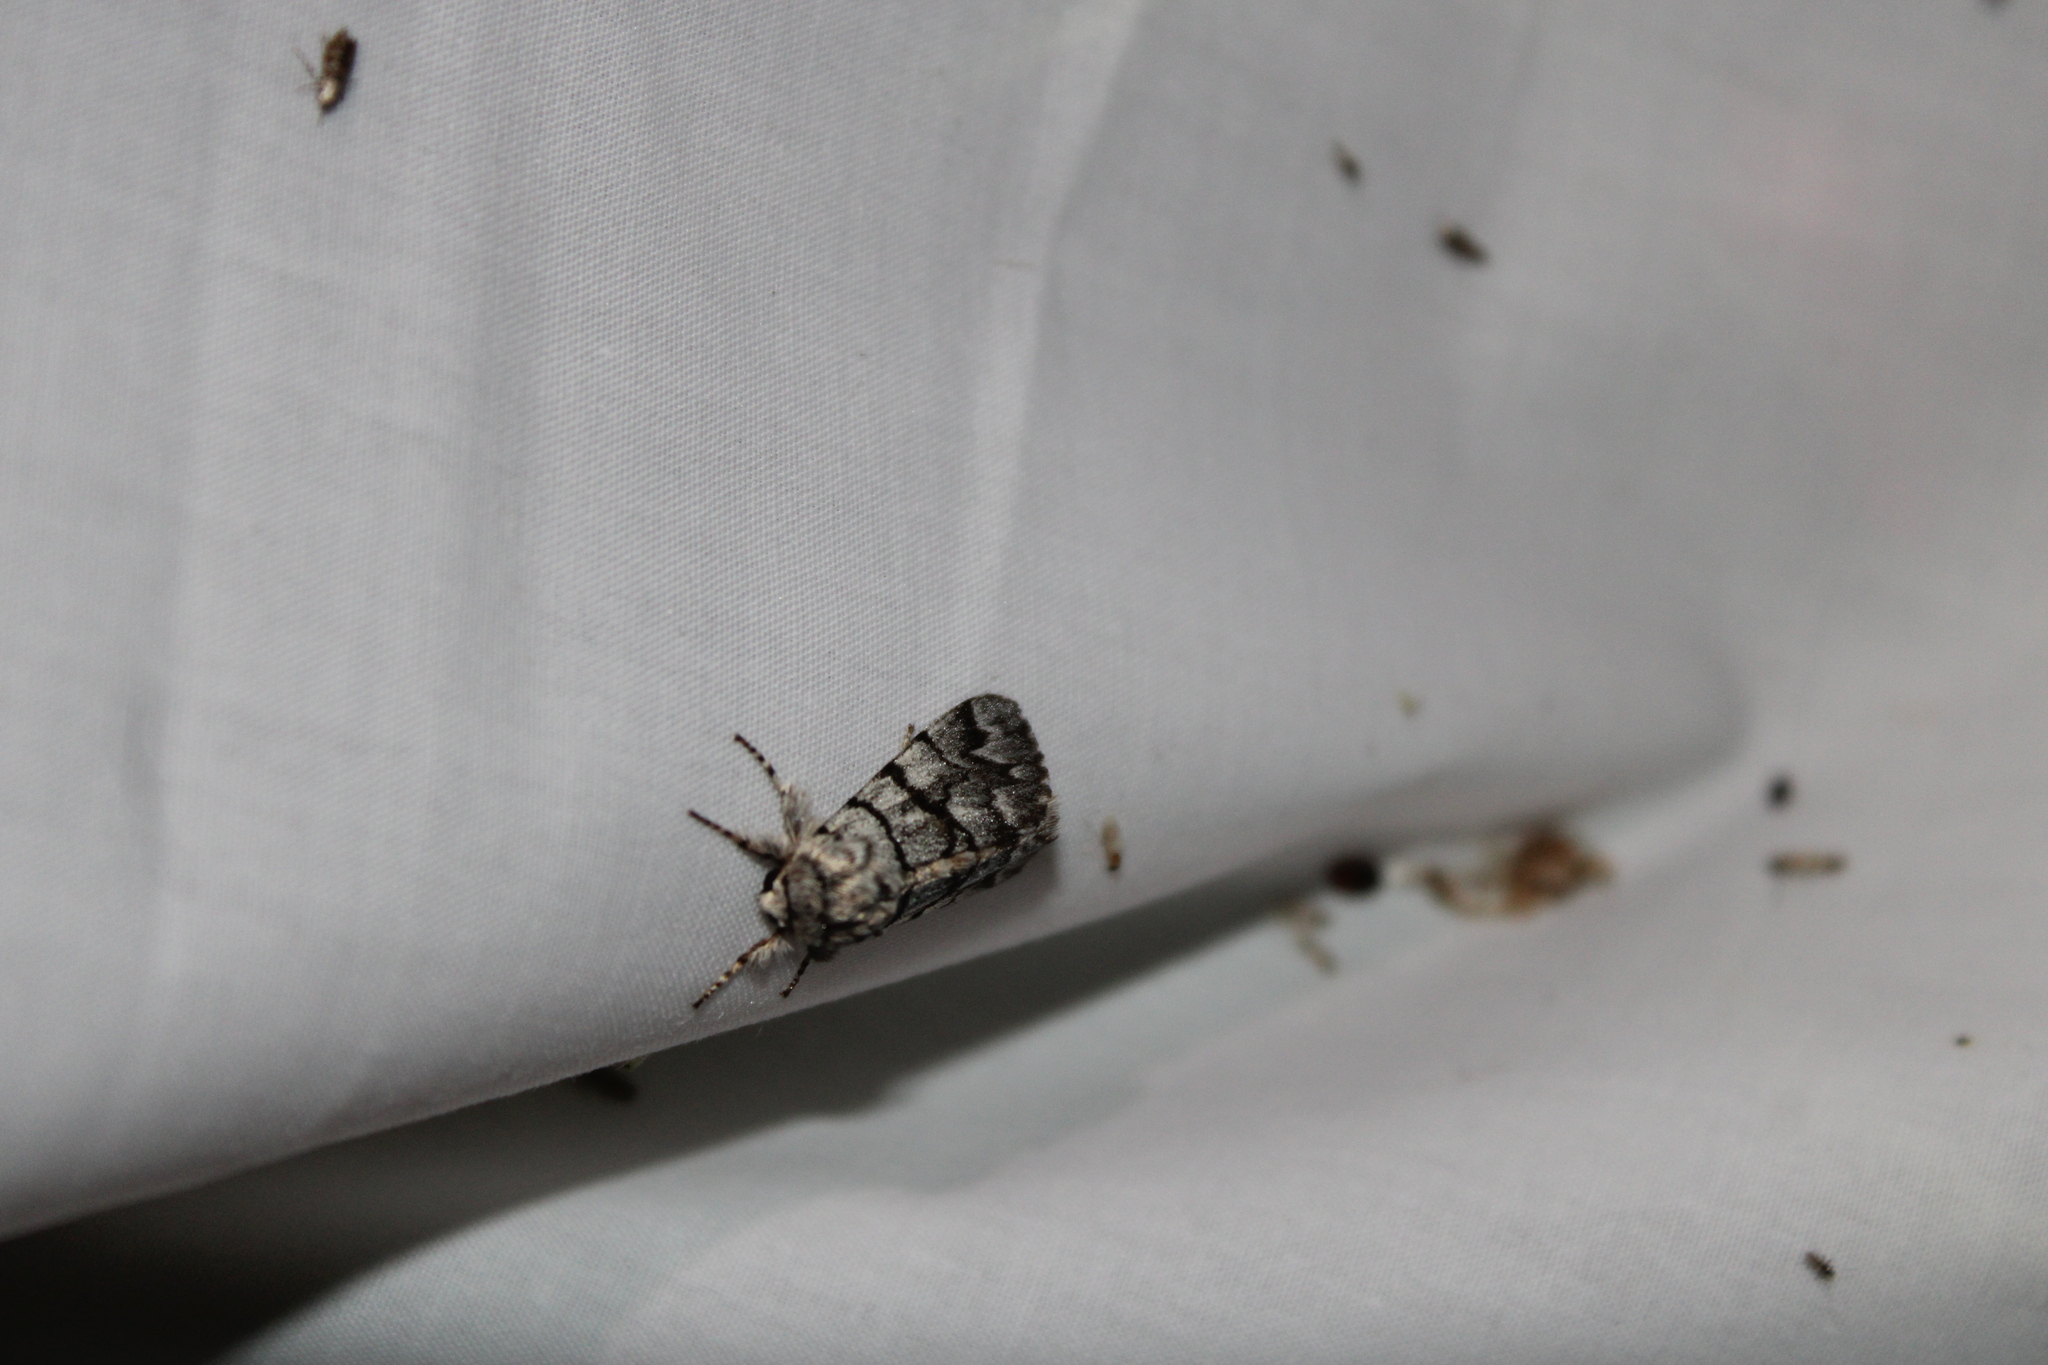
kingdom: Animalia
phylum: Arthropoda
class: Insecta
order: Lepidoptera
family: Noctuidae
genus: Panthea
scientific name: Panthea furcilla
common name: Eastern panthea moth
